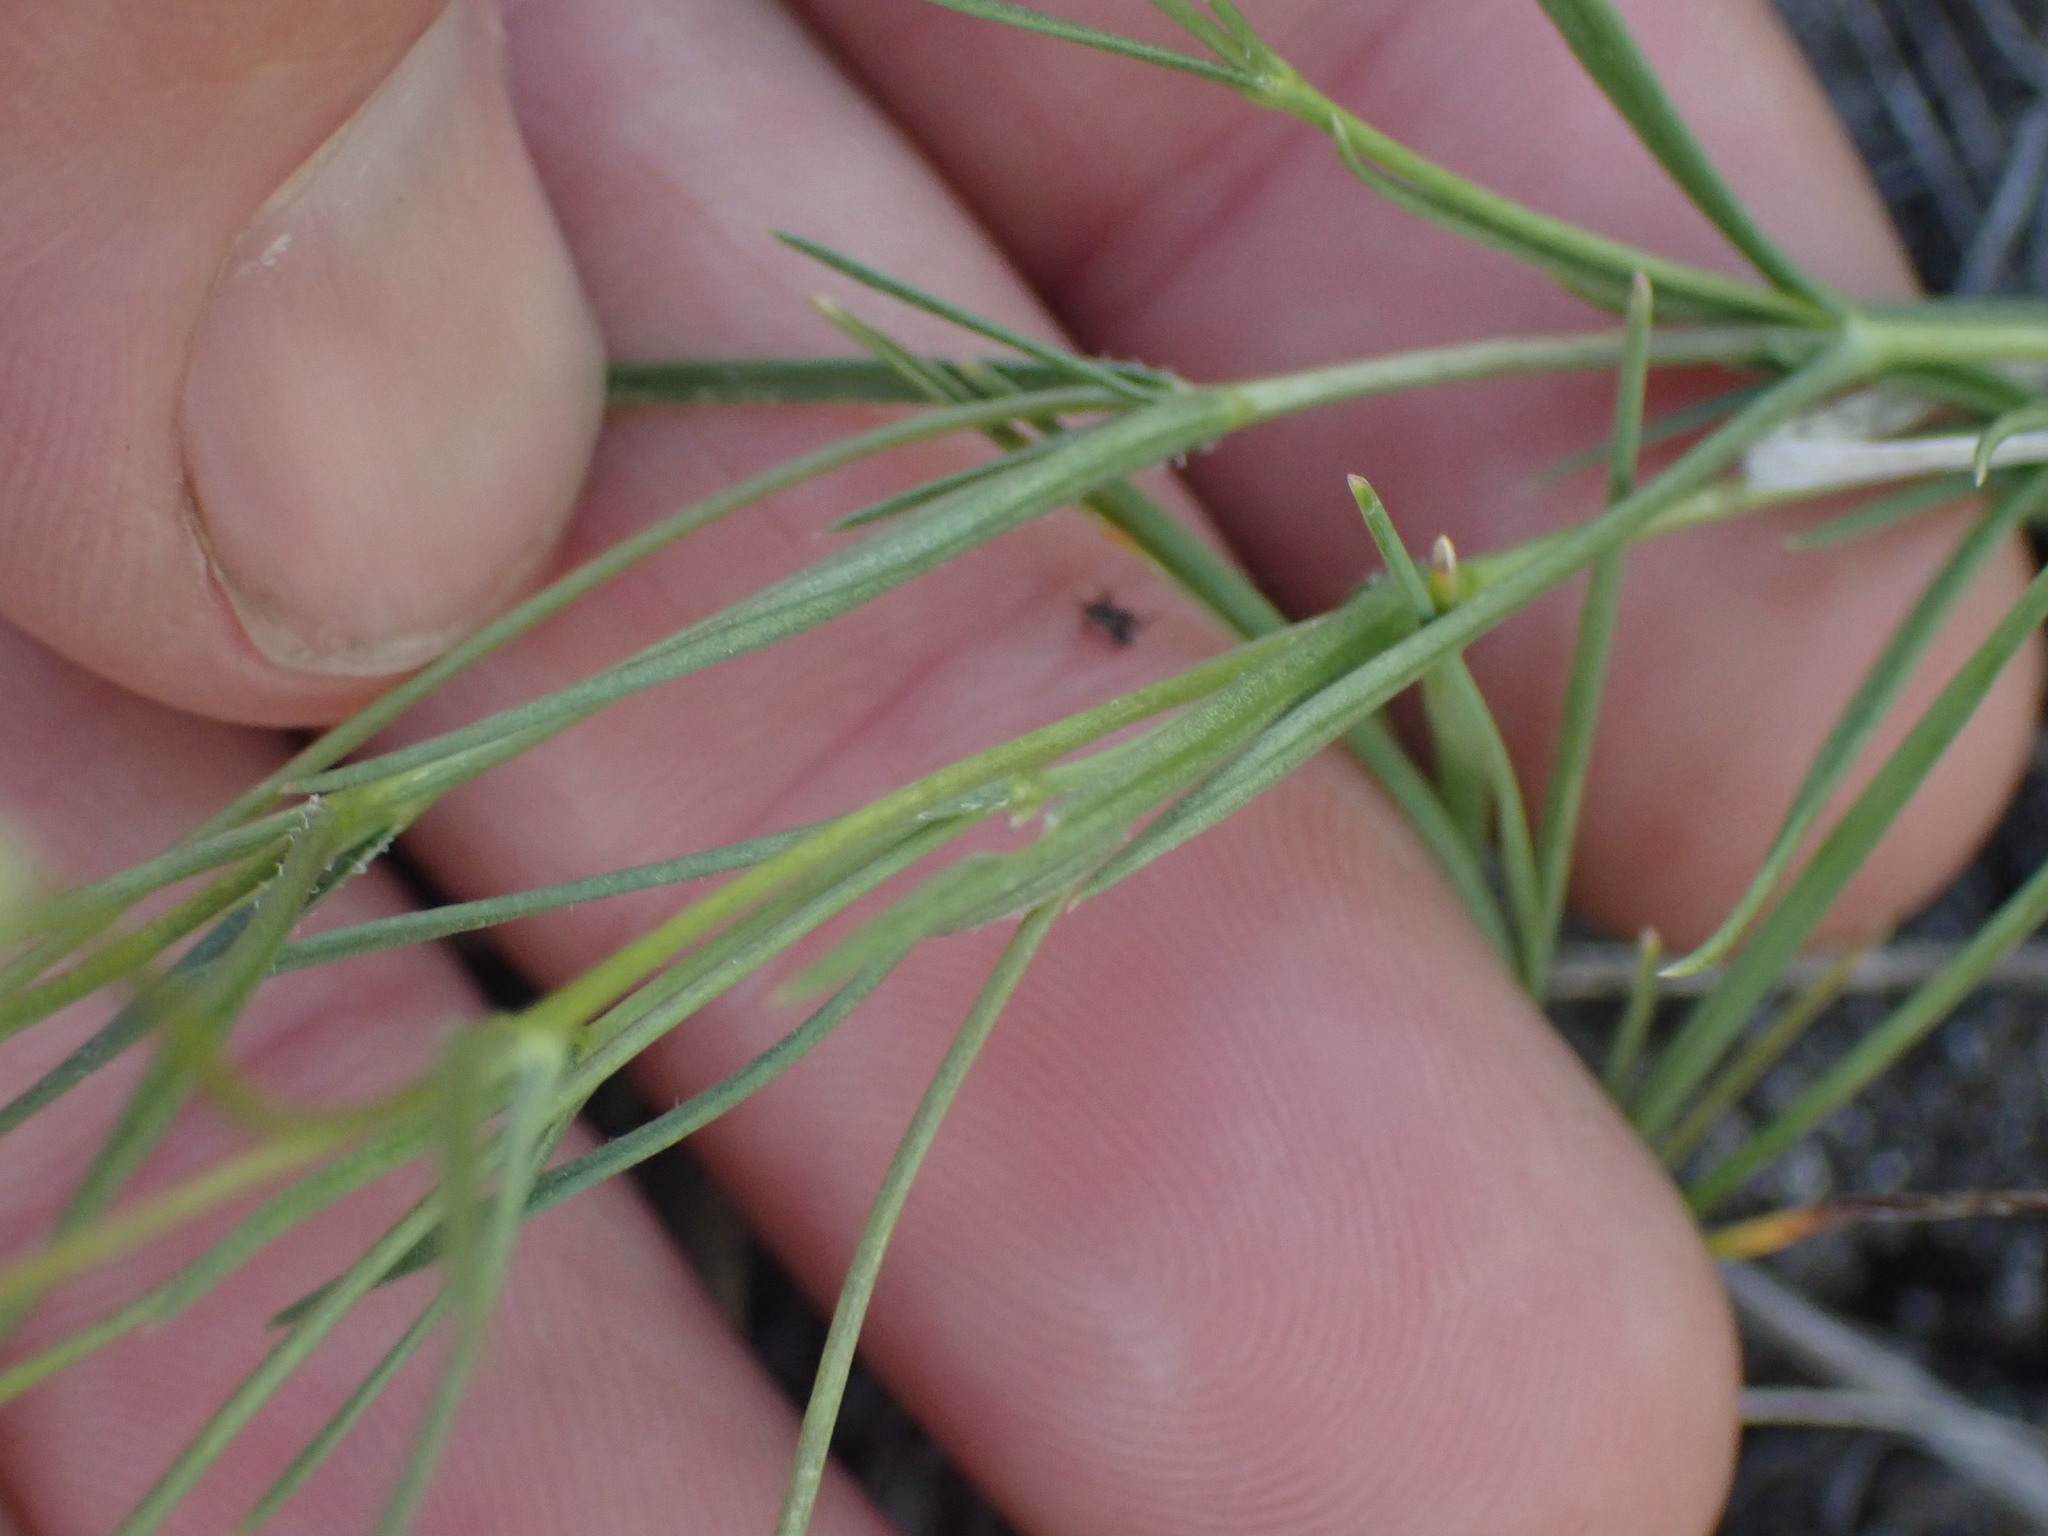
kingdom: Plantae
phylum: Tracheophyta
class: Magnoliopsida
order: Ericales
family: Polemoniaceae
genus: Phlox
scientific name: Phlox longifolia
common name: Longleaf phlox
